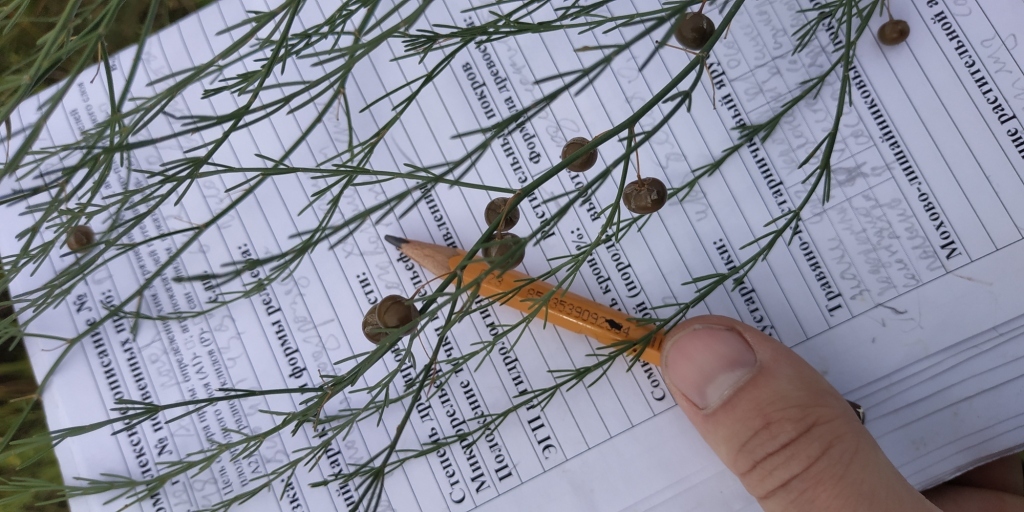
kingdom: Plantae
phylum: Tracheophyta
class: Liliopsida
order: Asparagales
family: Asparagaceae
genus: Asparagus
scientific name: Asparagus officinalis
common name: Garden asparagus
